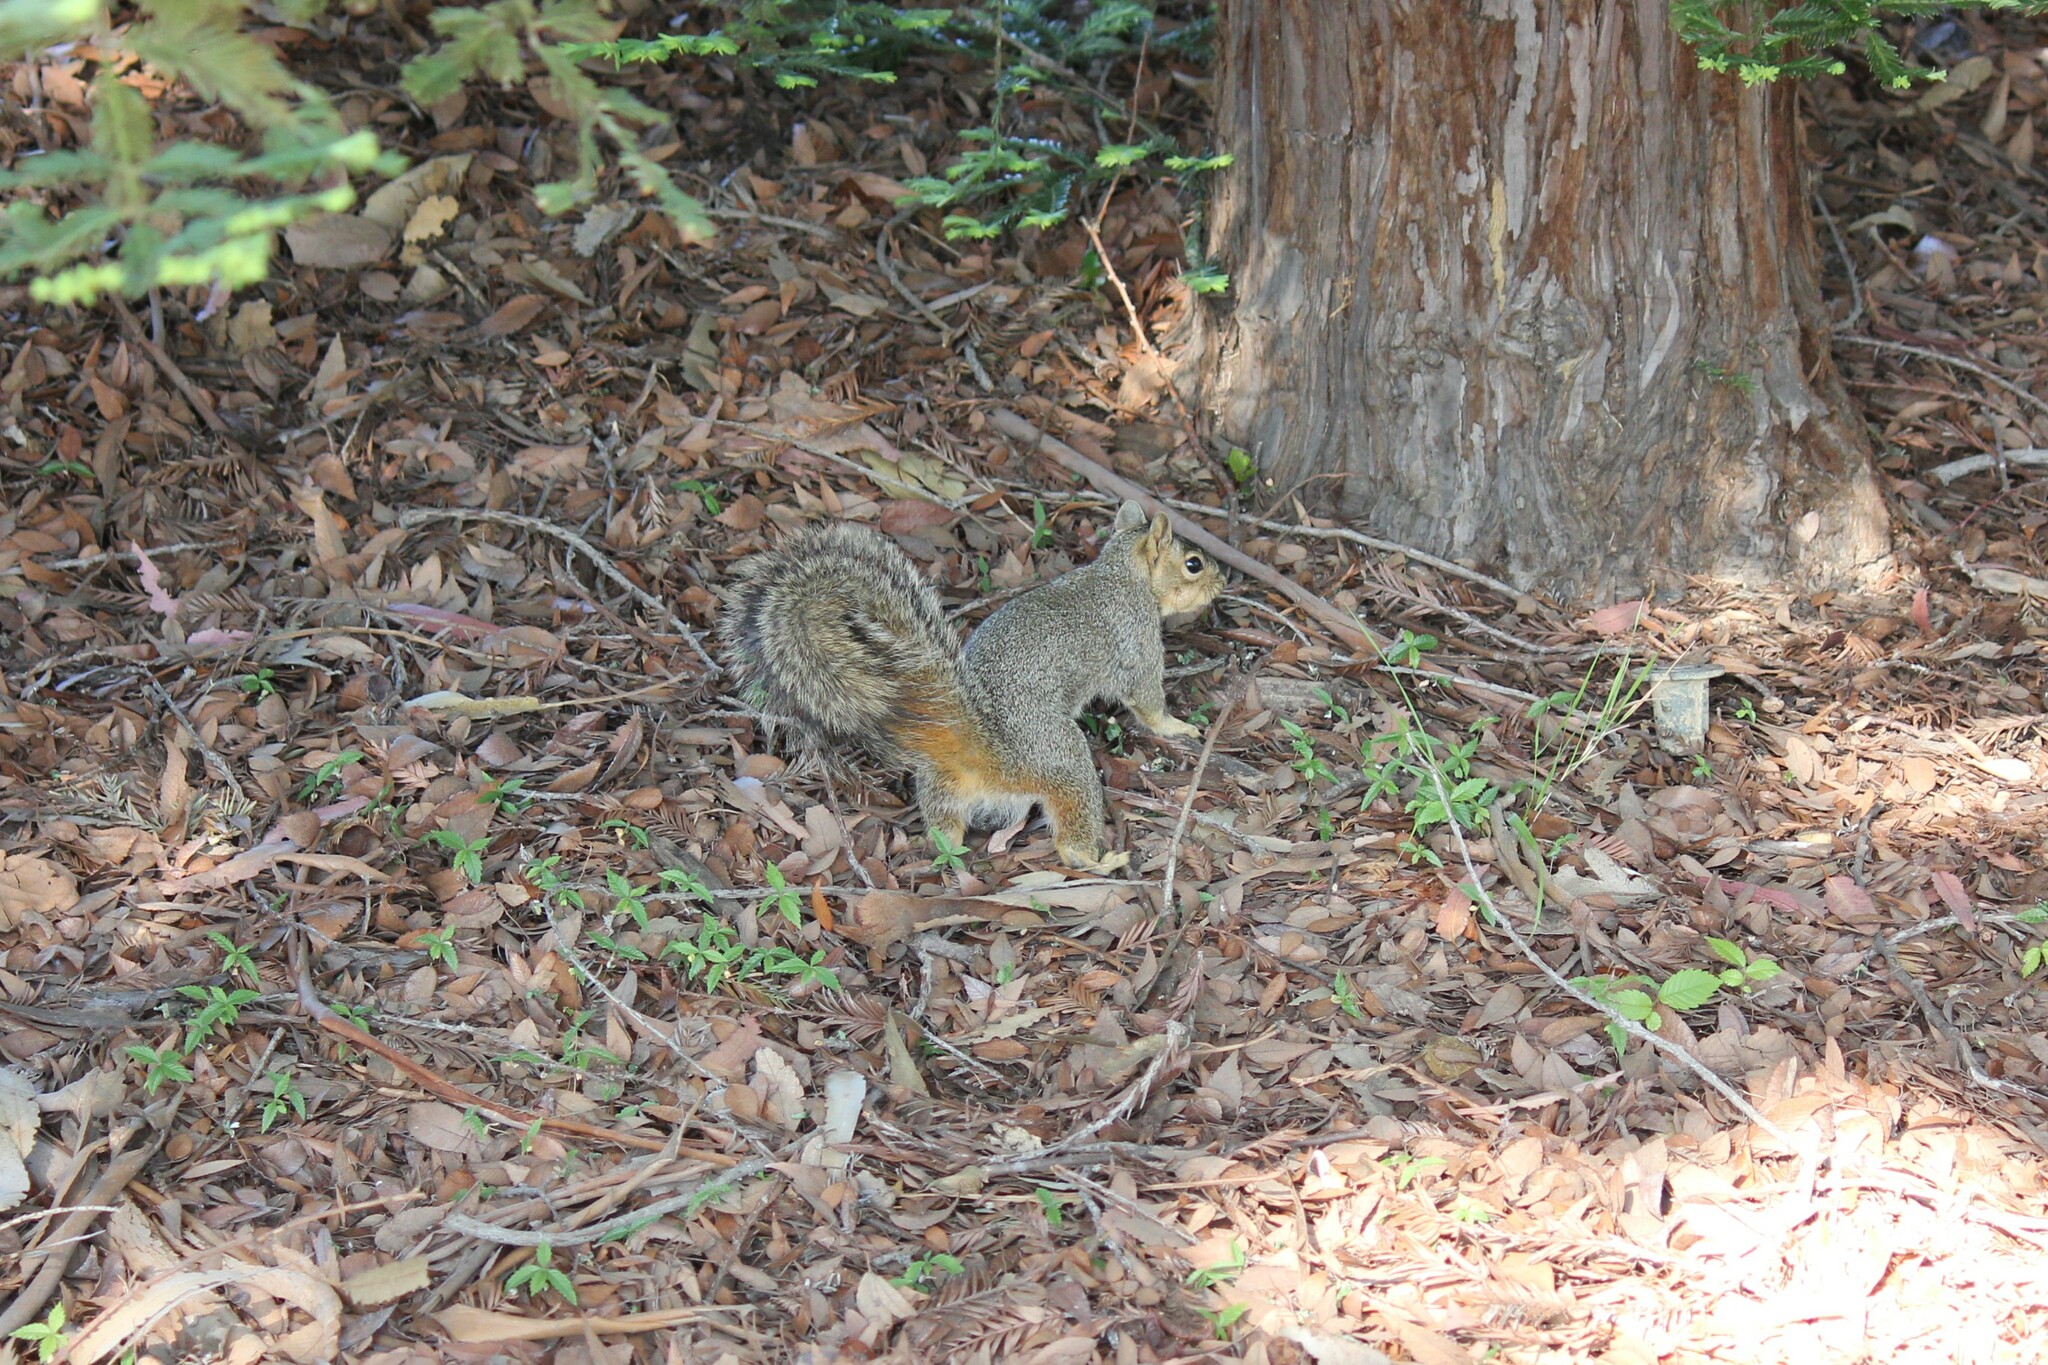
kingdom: Animalia
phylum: Chordata
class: Mammalia
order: Rodentia
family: Sciuridae
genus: Sciurus
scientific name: Sciurus niger
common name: Fox squirrel
